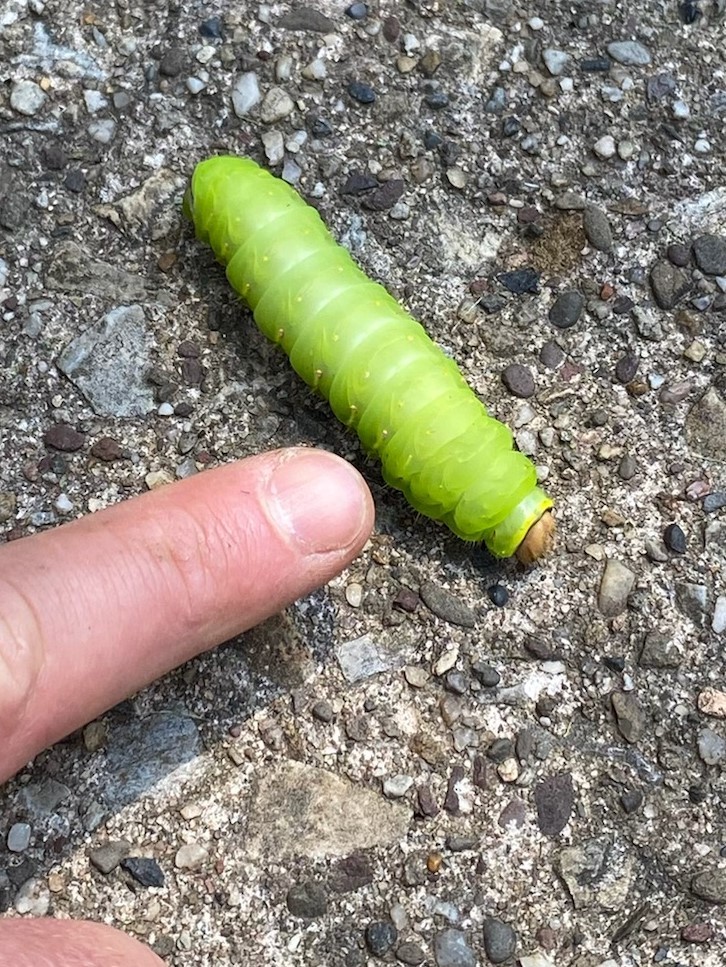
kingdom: Animalia
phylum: Arthropoda
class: Insecta
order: Lepidoptera
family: Saturniidae
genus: Antheraea
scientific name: Antheraea polyphemus
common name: Polyphemus moth
